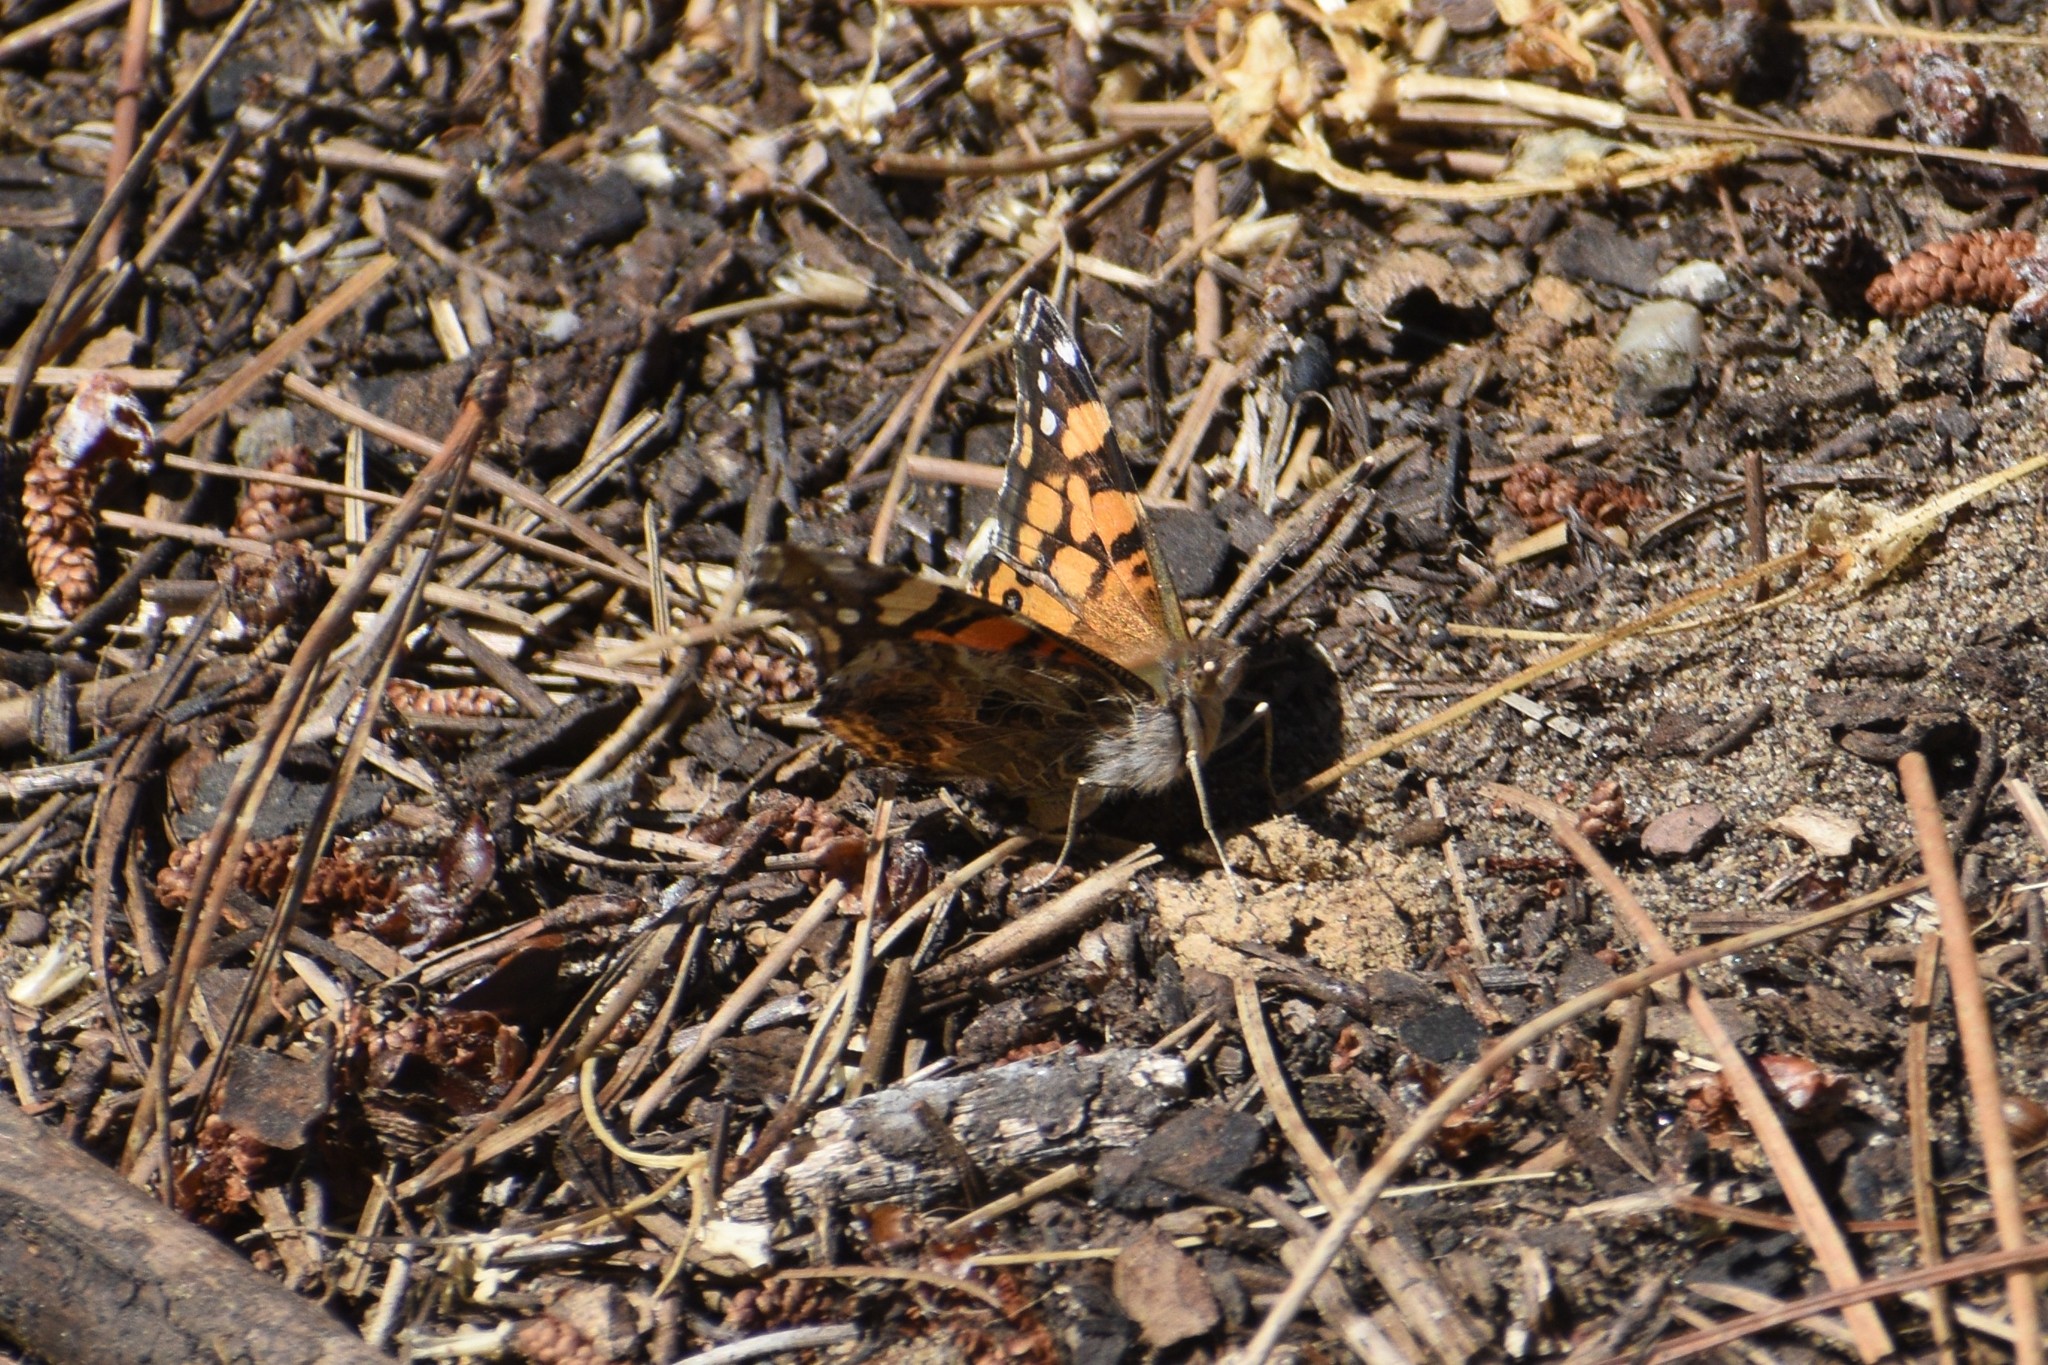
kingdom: Animalia
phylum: Arthropoda
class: Insecta
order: Lepidoptera
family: Nymphalidae
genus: Vanessa
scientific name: Vanessa annabella
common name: West coast lady
